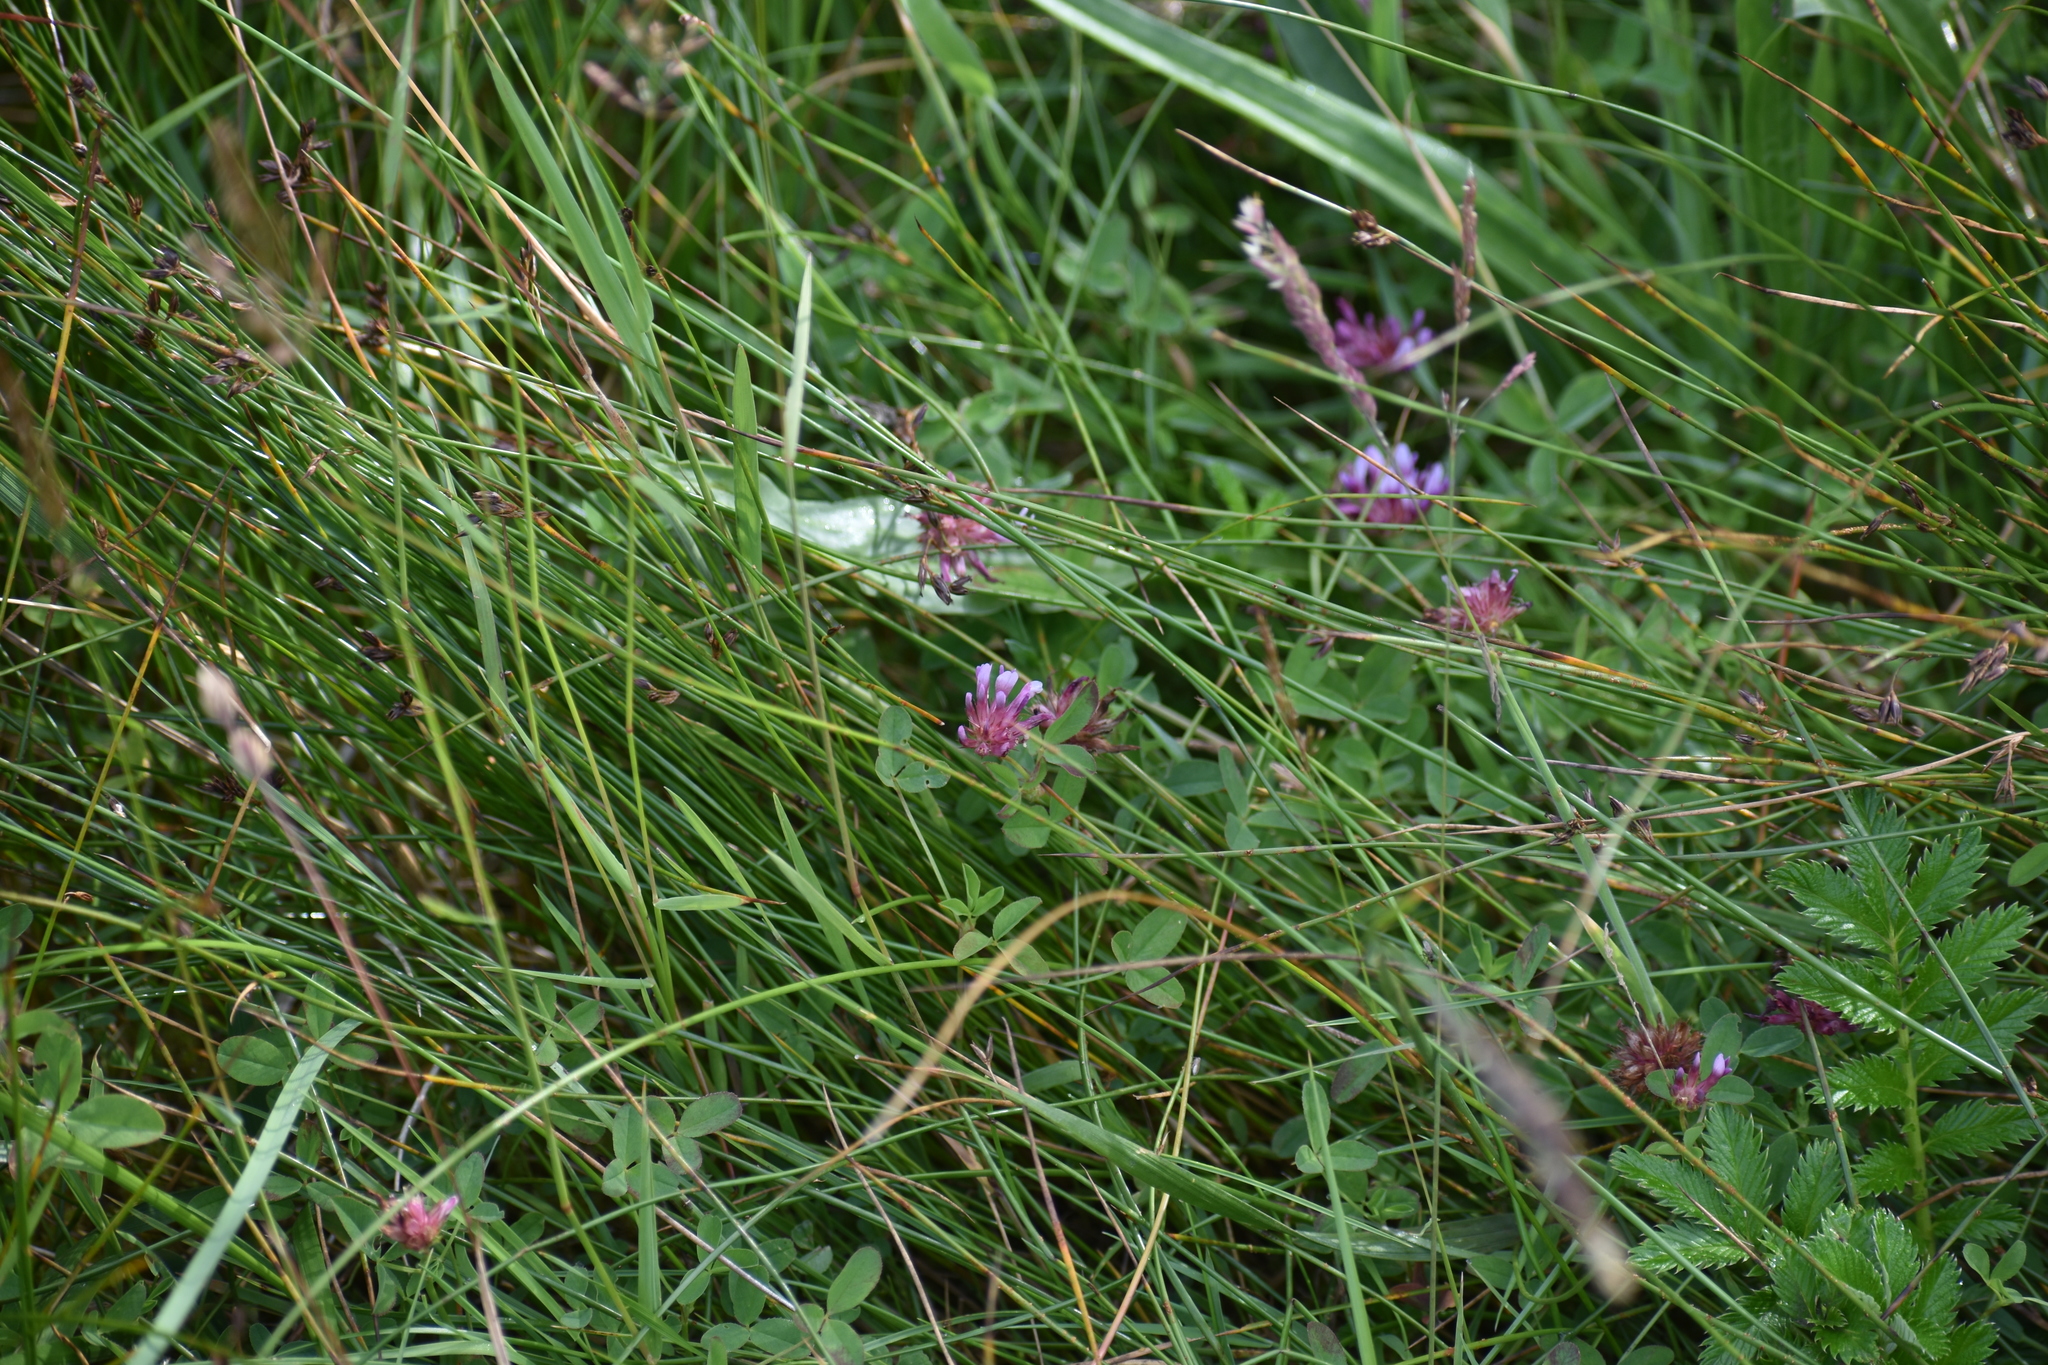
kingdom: Plantae
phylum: Tracheophyta
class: Magnoliopsida
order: Fabales
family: Fabaceae
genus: Trifolium
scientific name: Trifolium wormskioldii
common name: Springbank clover
